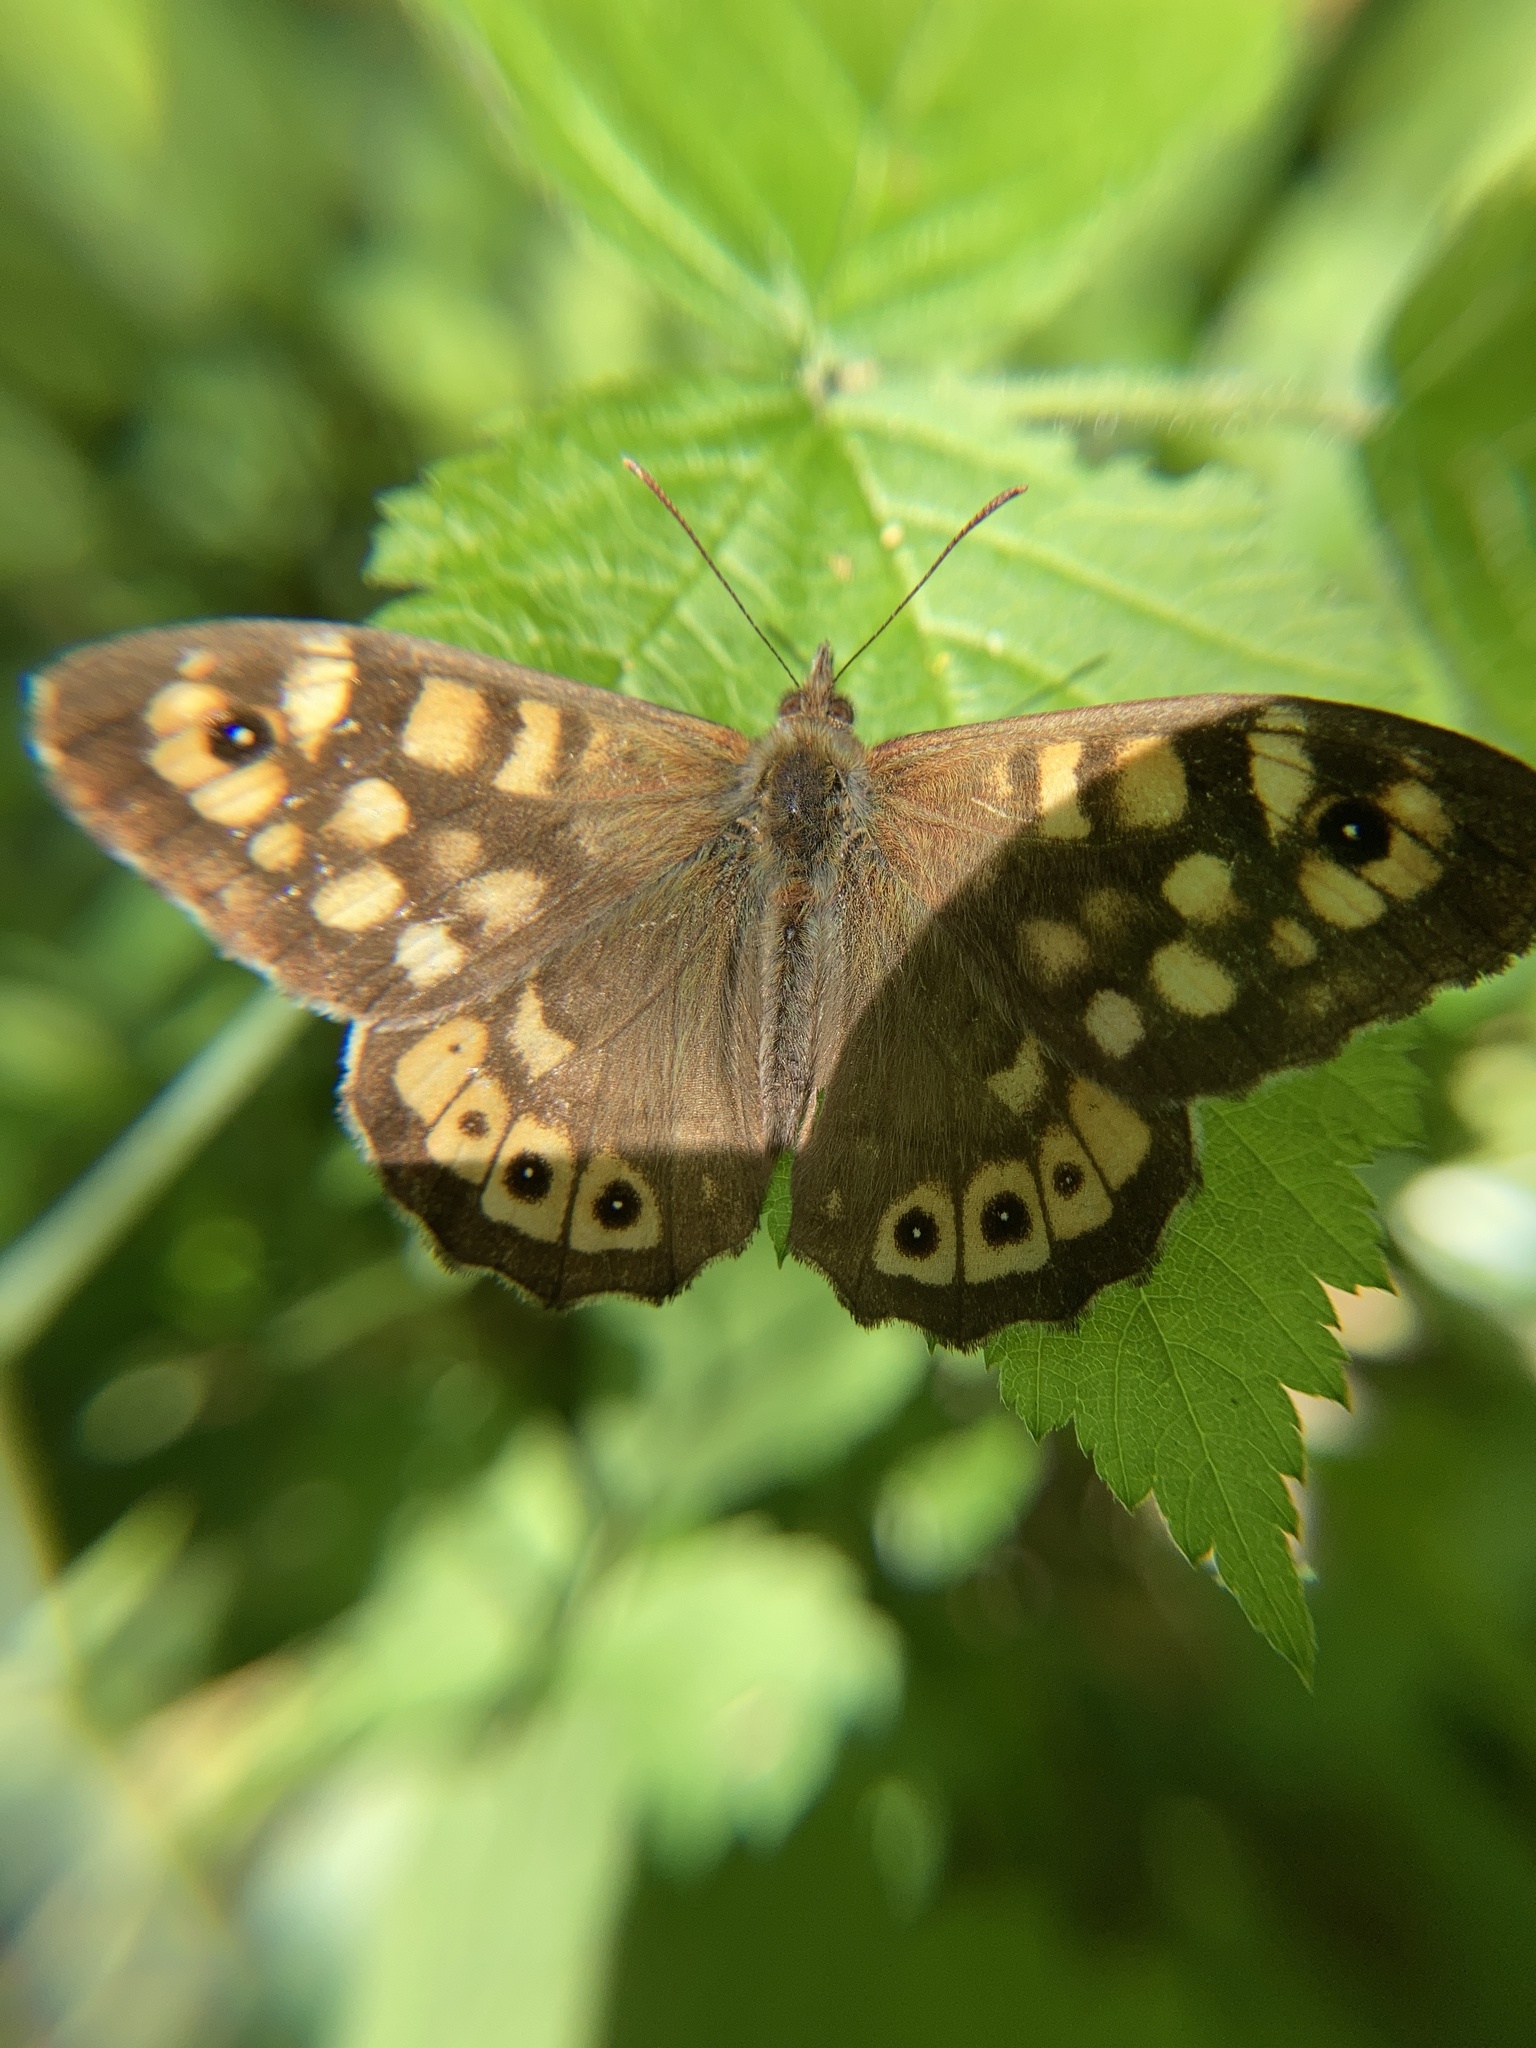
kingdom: Animalia
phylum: Arthropoda
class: Insecta
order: Lepidoptera
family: Nymphalidae
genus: Pararge
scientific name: Pararge aegeria
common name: Speckled wood
